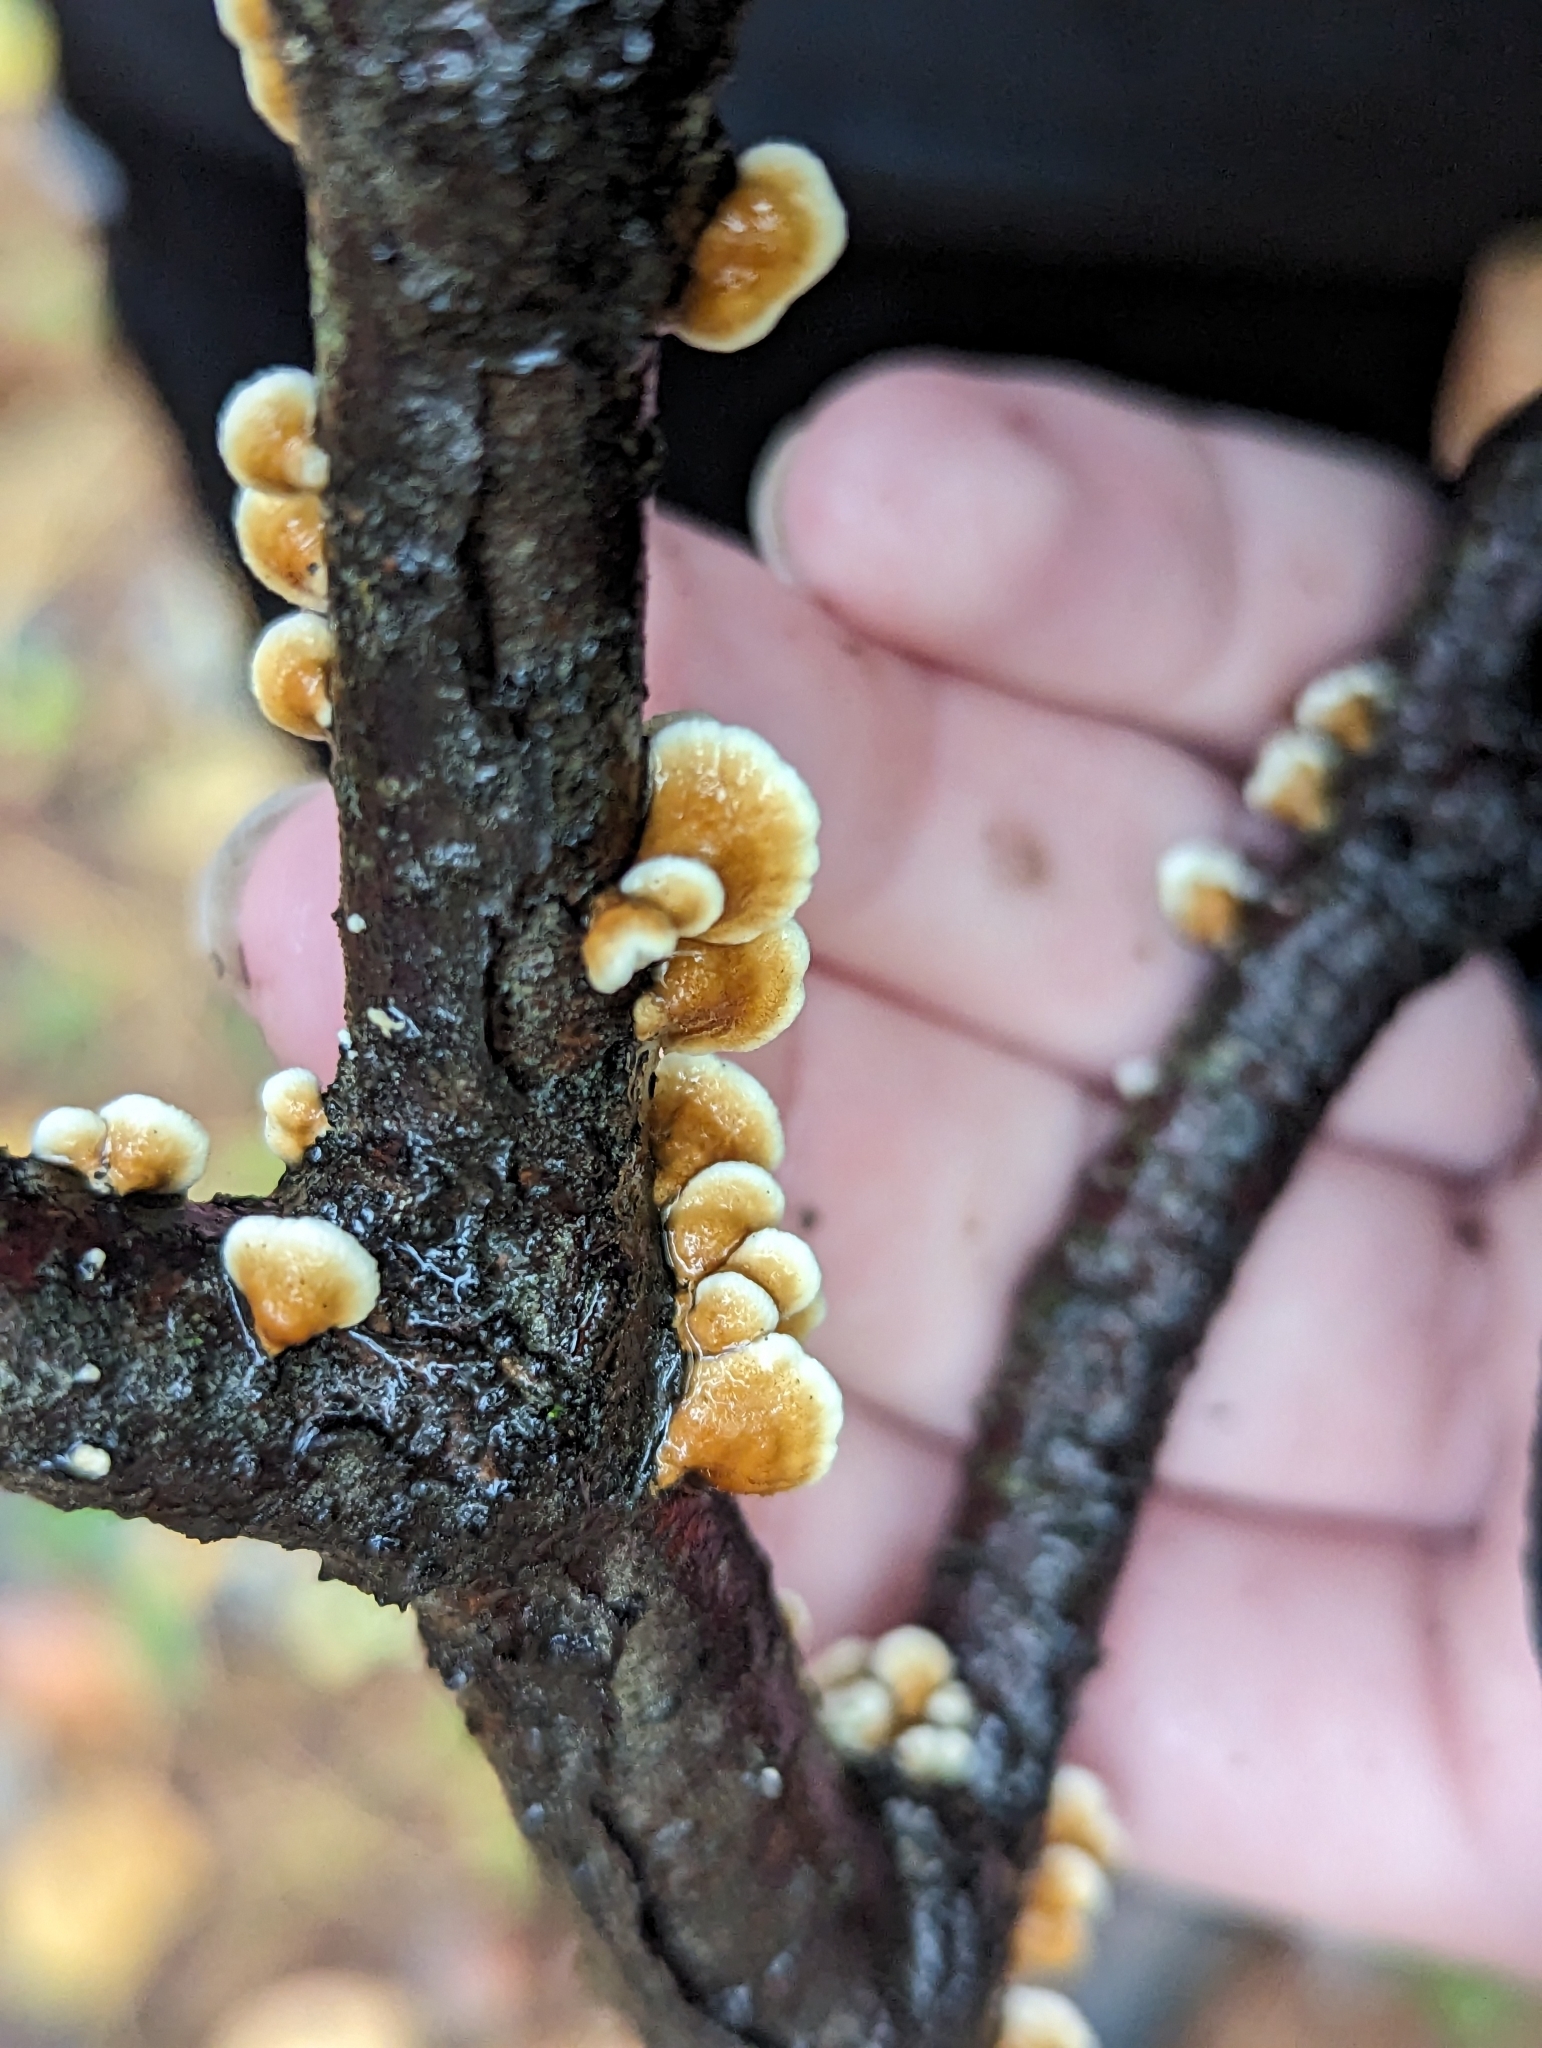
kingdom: Fungi
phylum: Basidiomycota
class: Agaricomycetes
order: Amylocorticiales
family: Amylocorticiaceae
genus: Plicaturopsis
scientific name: Plicaturopsis crispa
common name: Crimped gill
